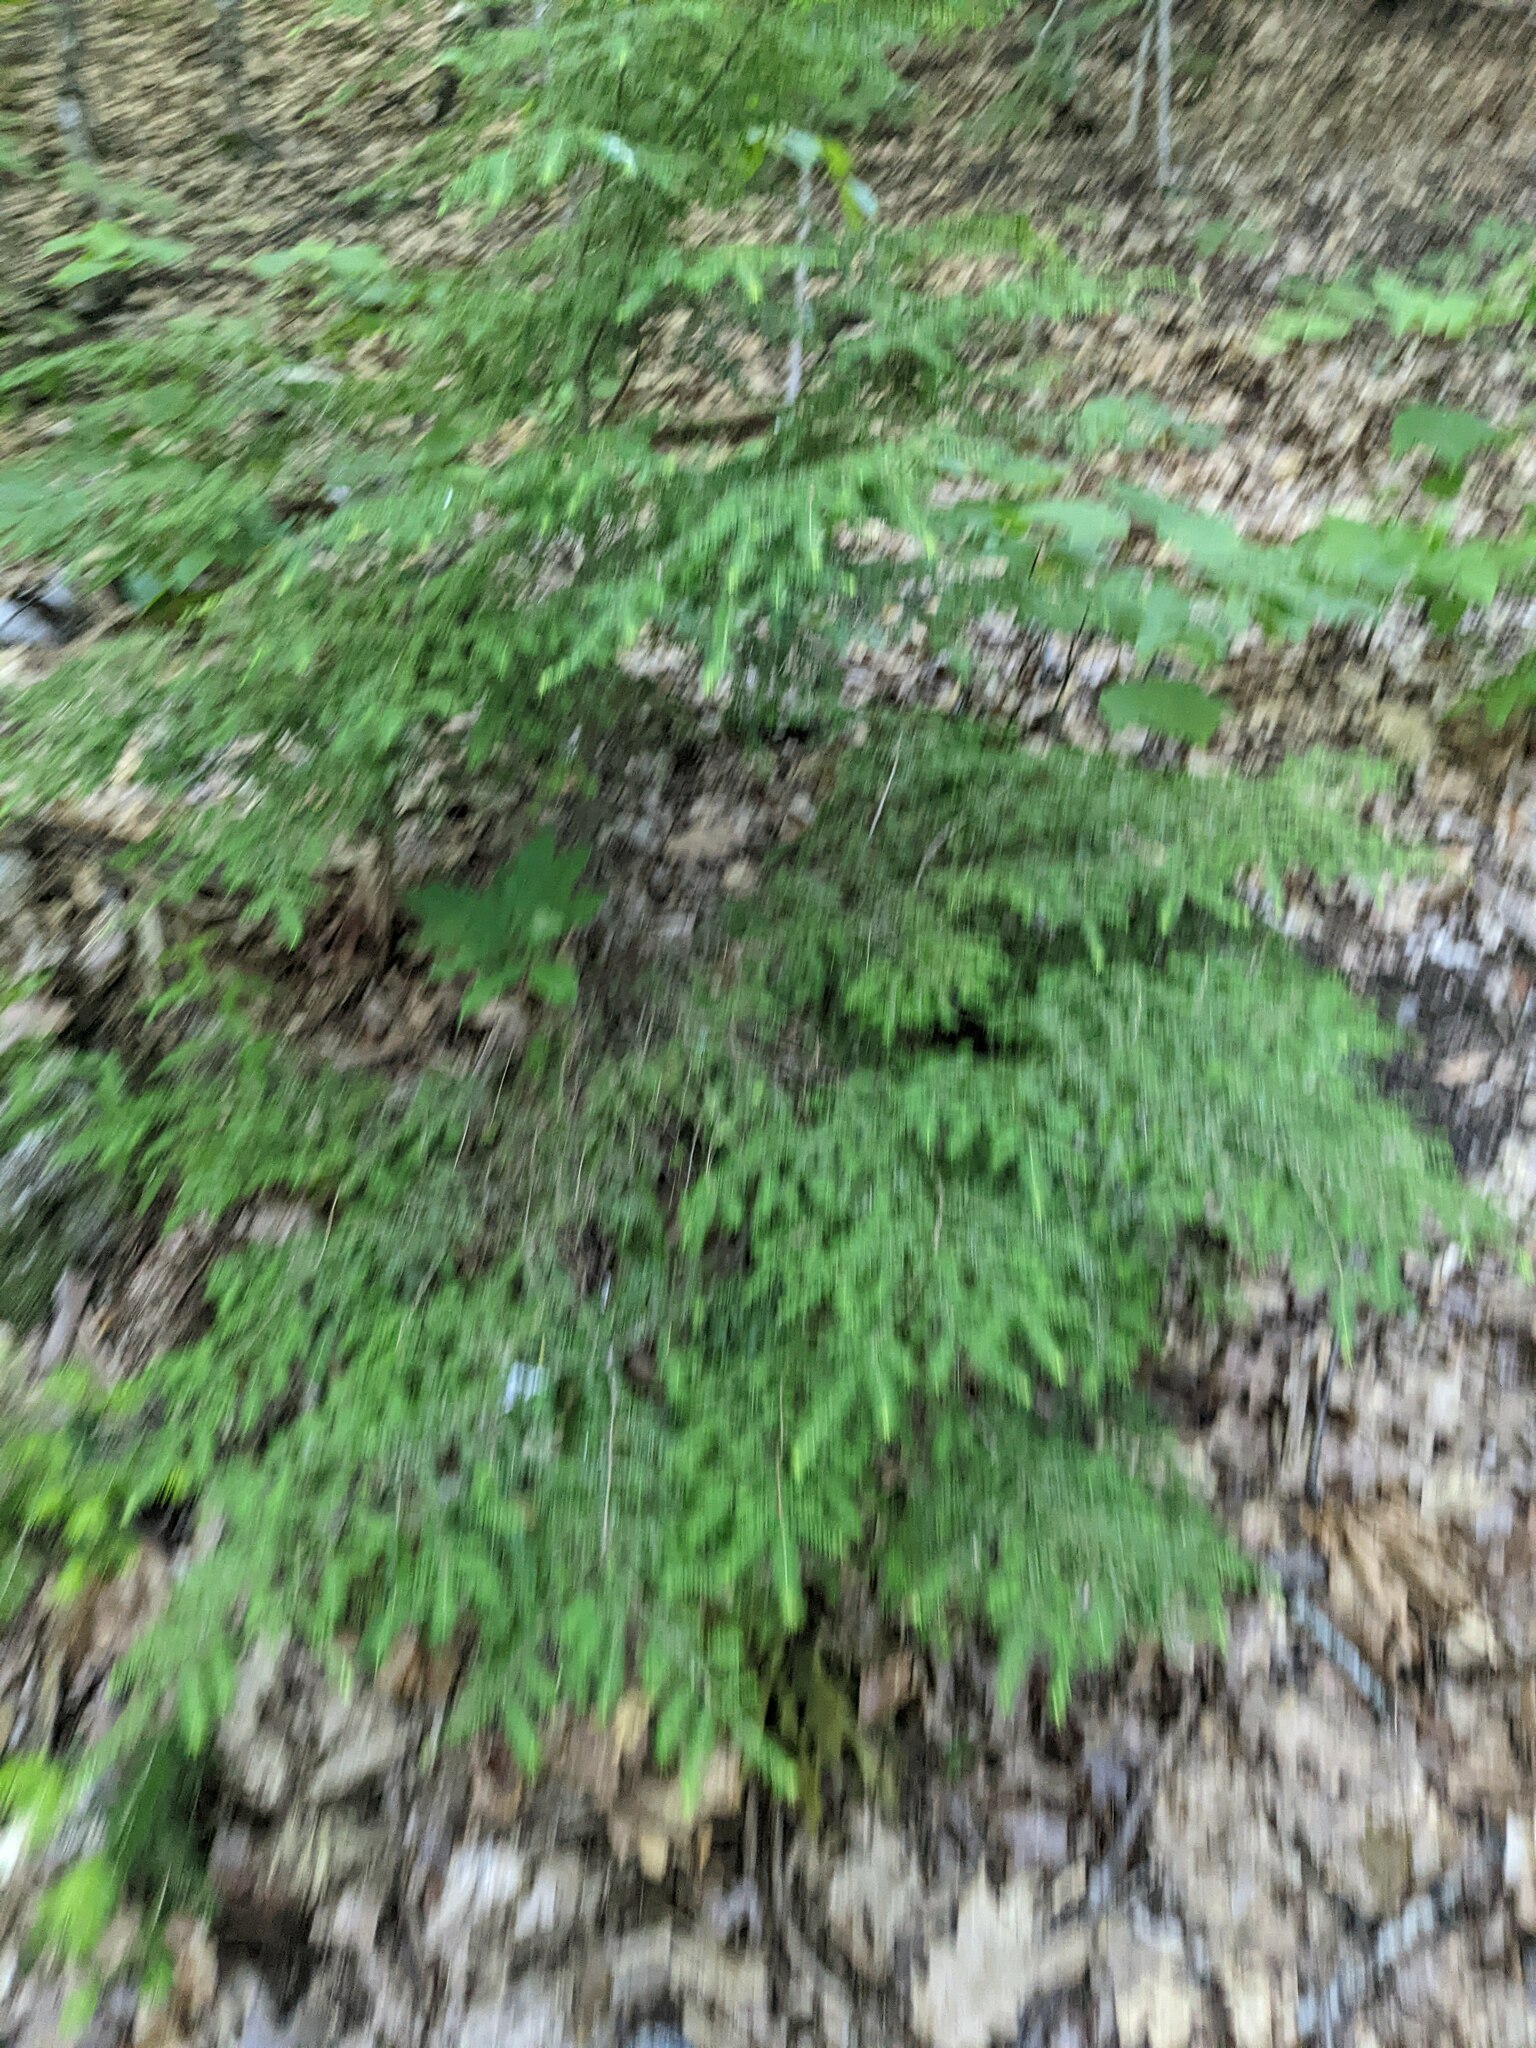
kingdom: Plantae
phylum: Tracheophyta
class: Pinopsida
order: Pinales
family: Pinaceae
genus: Tsuga
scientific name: Tsuga canadensis
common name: Eastern hemlock
